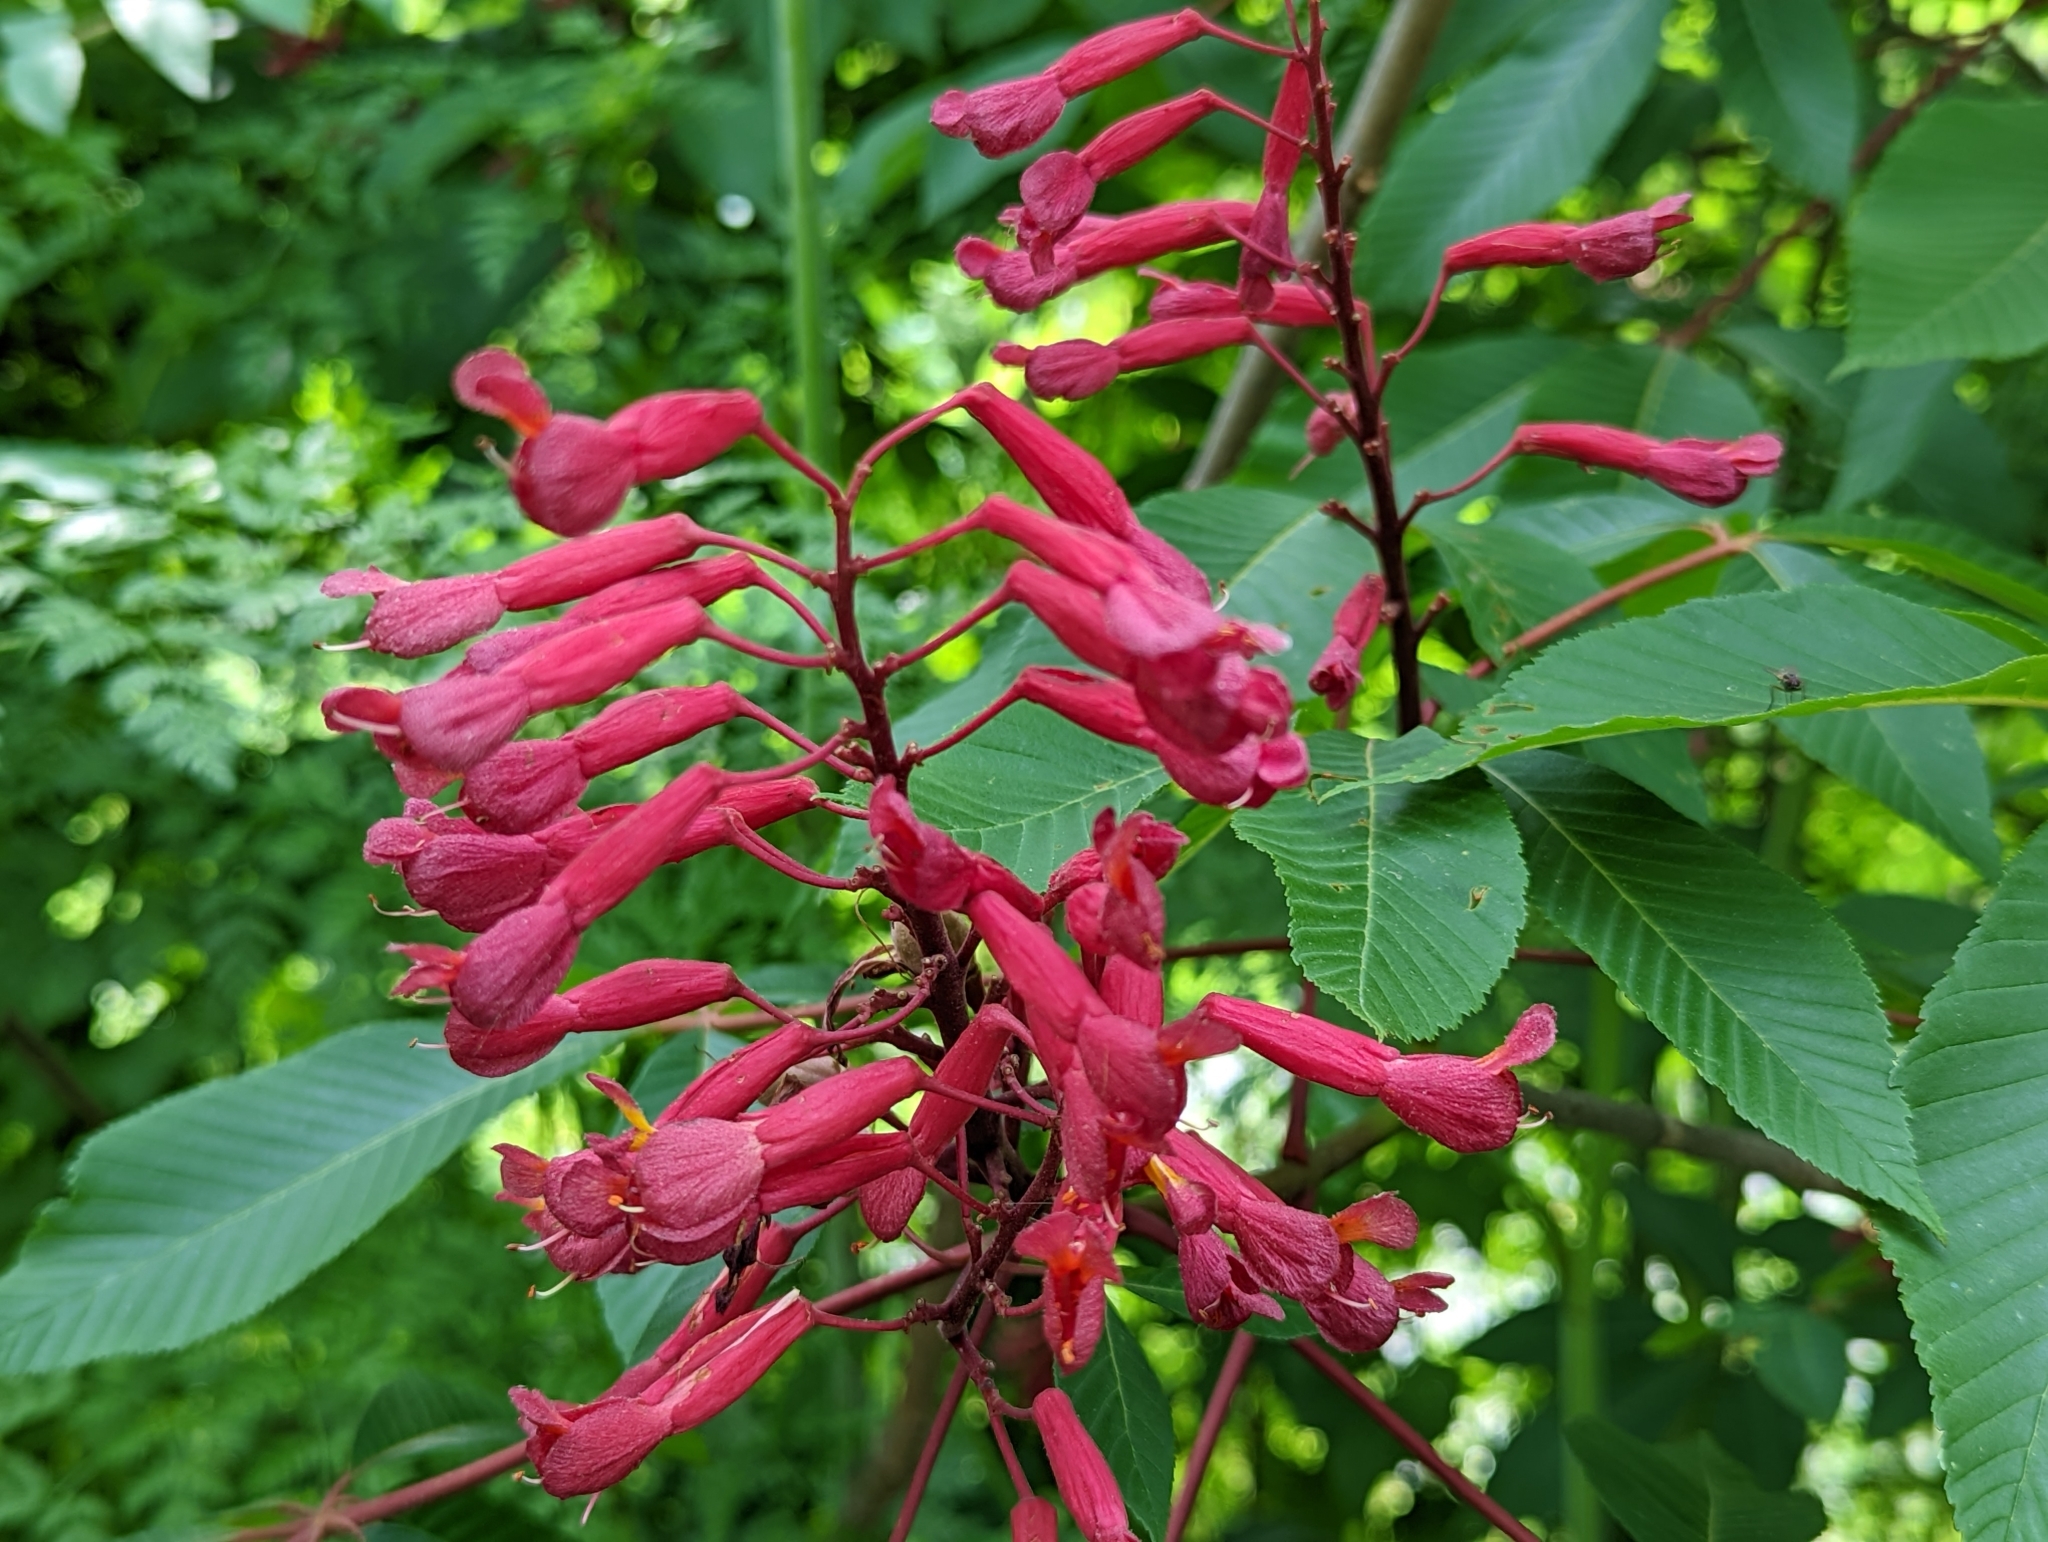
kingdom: Plantae
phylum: Tracheophyta
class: Magnoliopsida
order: Sapindales
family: Sapindaceae
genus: Aesculus
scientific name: Aesculus pavia
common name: Red buckeye
